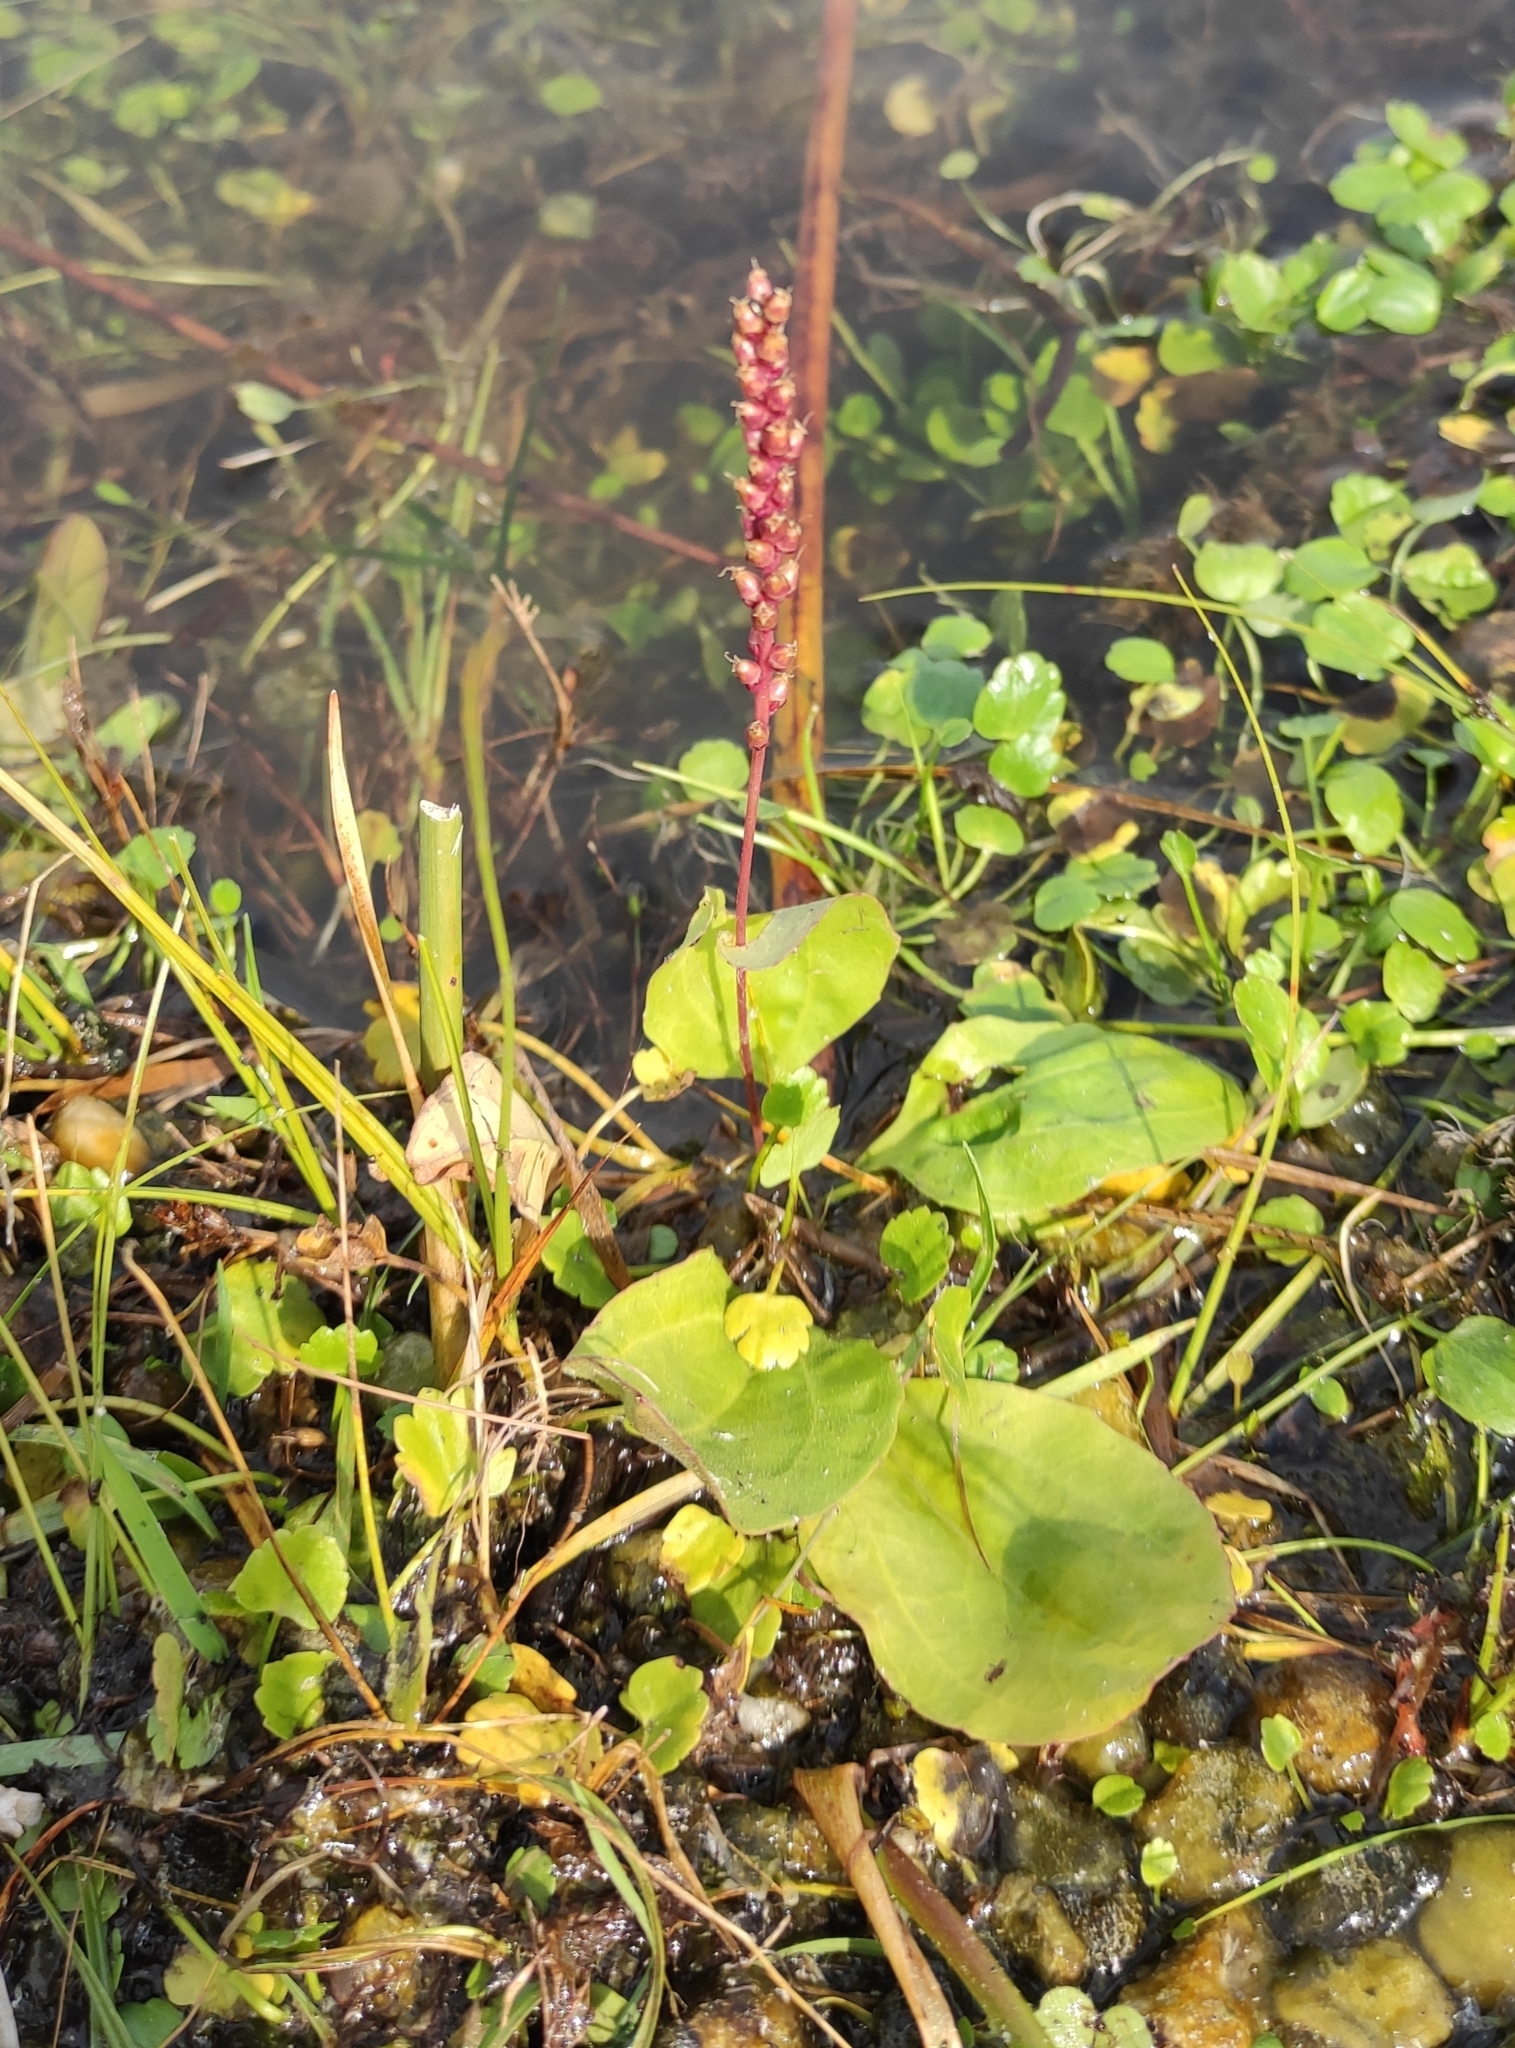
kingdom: Plantae
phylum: Tracheophyta
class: Magnoliopsida
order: Lamiales
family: Plantaginaceae
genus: Plantago
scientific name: Plantago uliginosa
